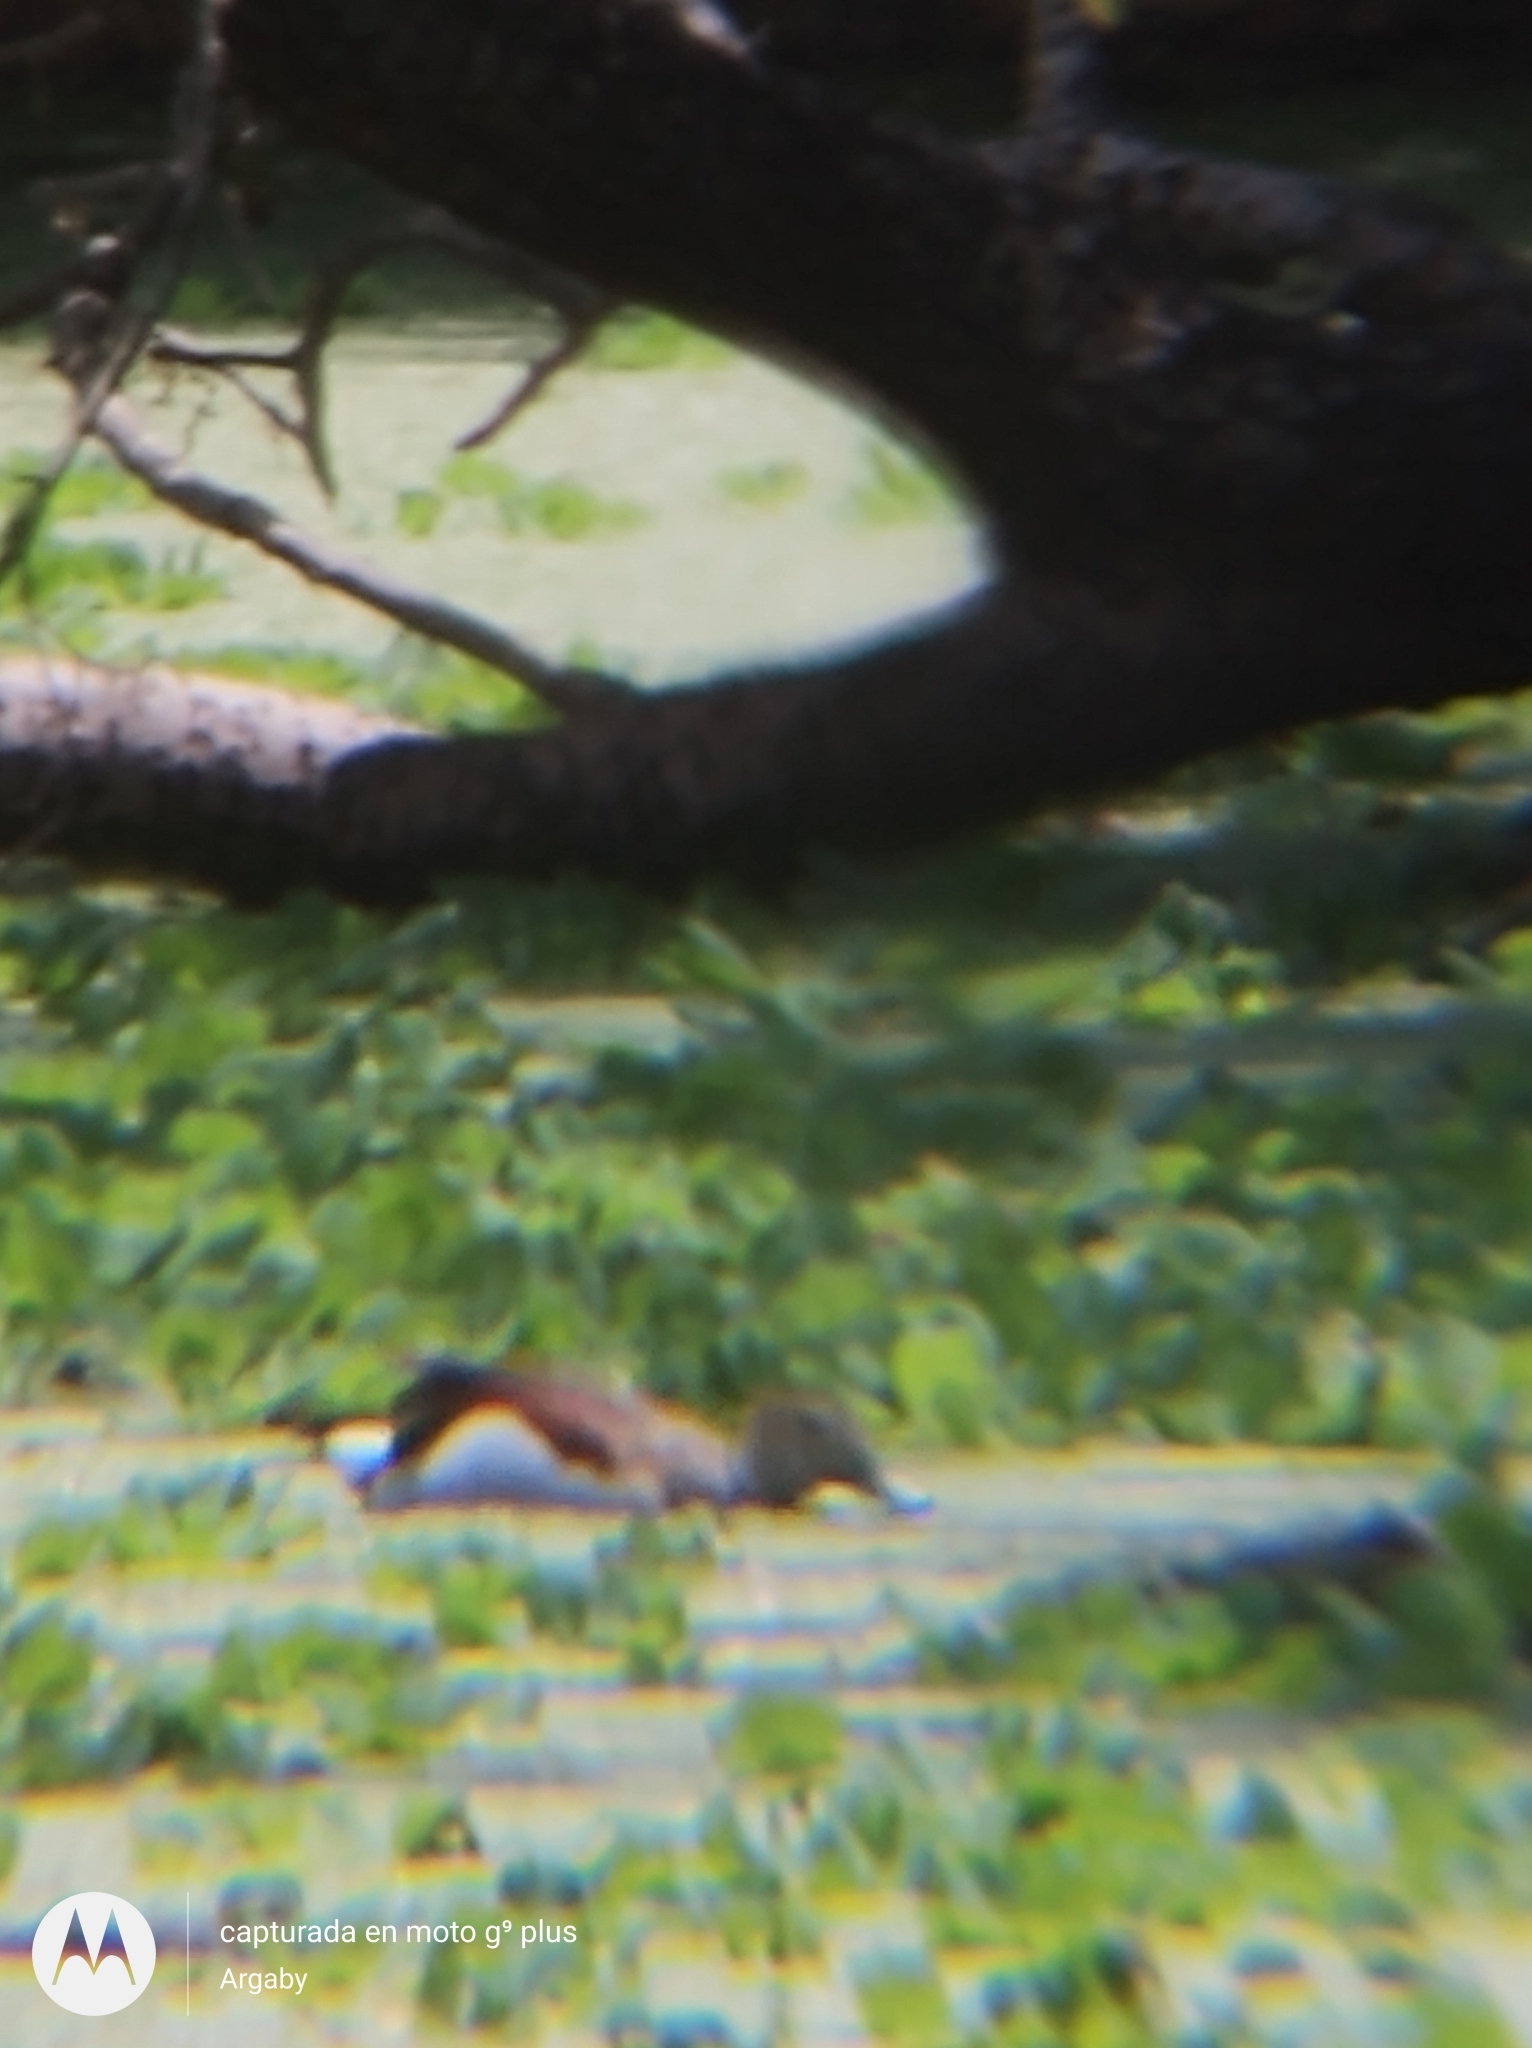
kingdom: Animalia
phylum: Chordata
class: Aves
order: Anseriformes
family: Anatidae
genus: Callonetta
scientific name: Callonetta leucophrys
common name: Ringed teal
